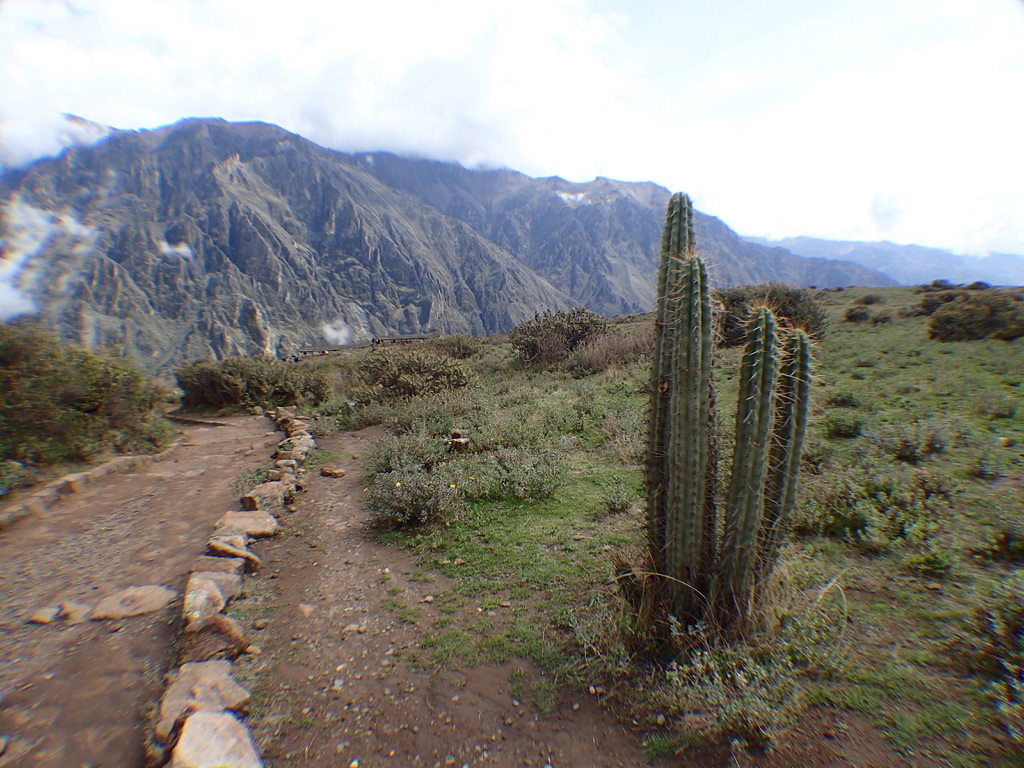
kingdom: Plantae
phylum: Tracheophyta
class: Magnoliopsida
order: Caryophyllales
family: Cactaceae
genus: Corryocactus
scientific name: Corryocactus brevistylus
